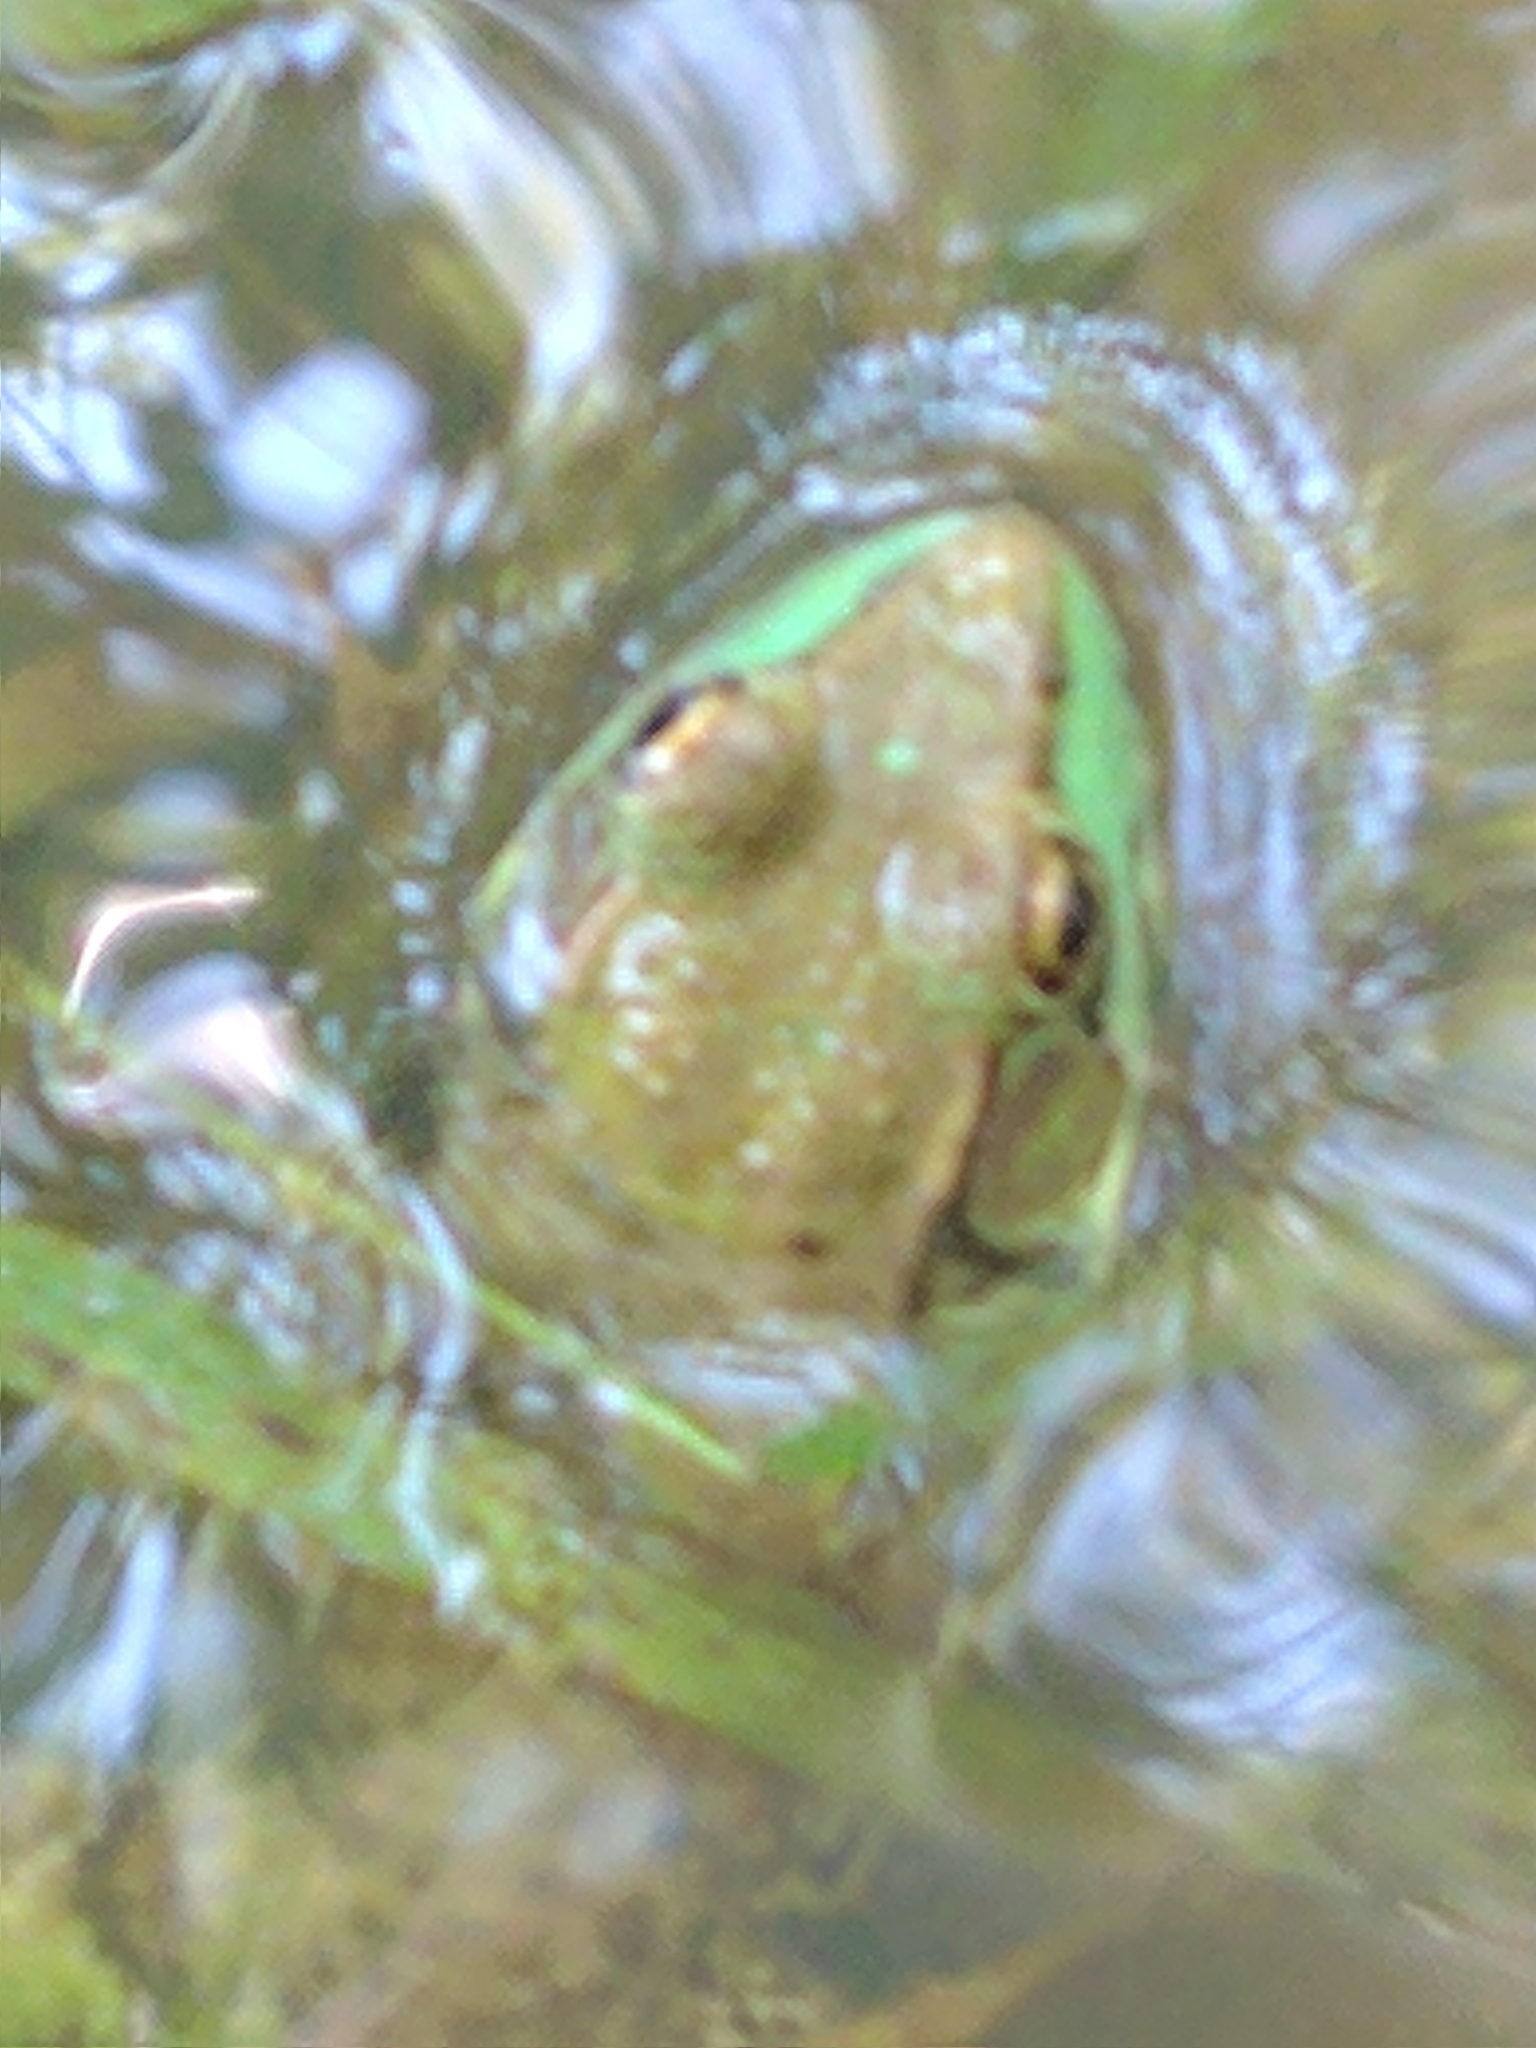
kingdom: Animalia
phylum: Chordata
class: Amphibia
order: Anura
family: Ranidae
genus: Lithobates
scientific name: Lithobates clamitans
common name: Green frog
